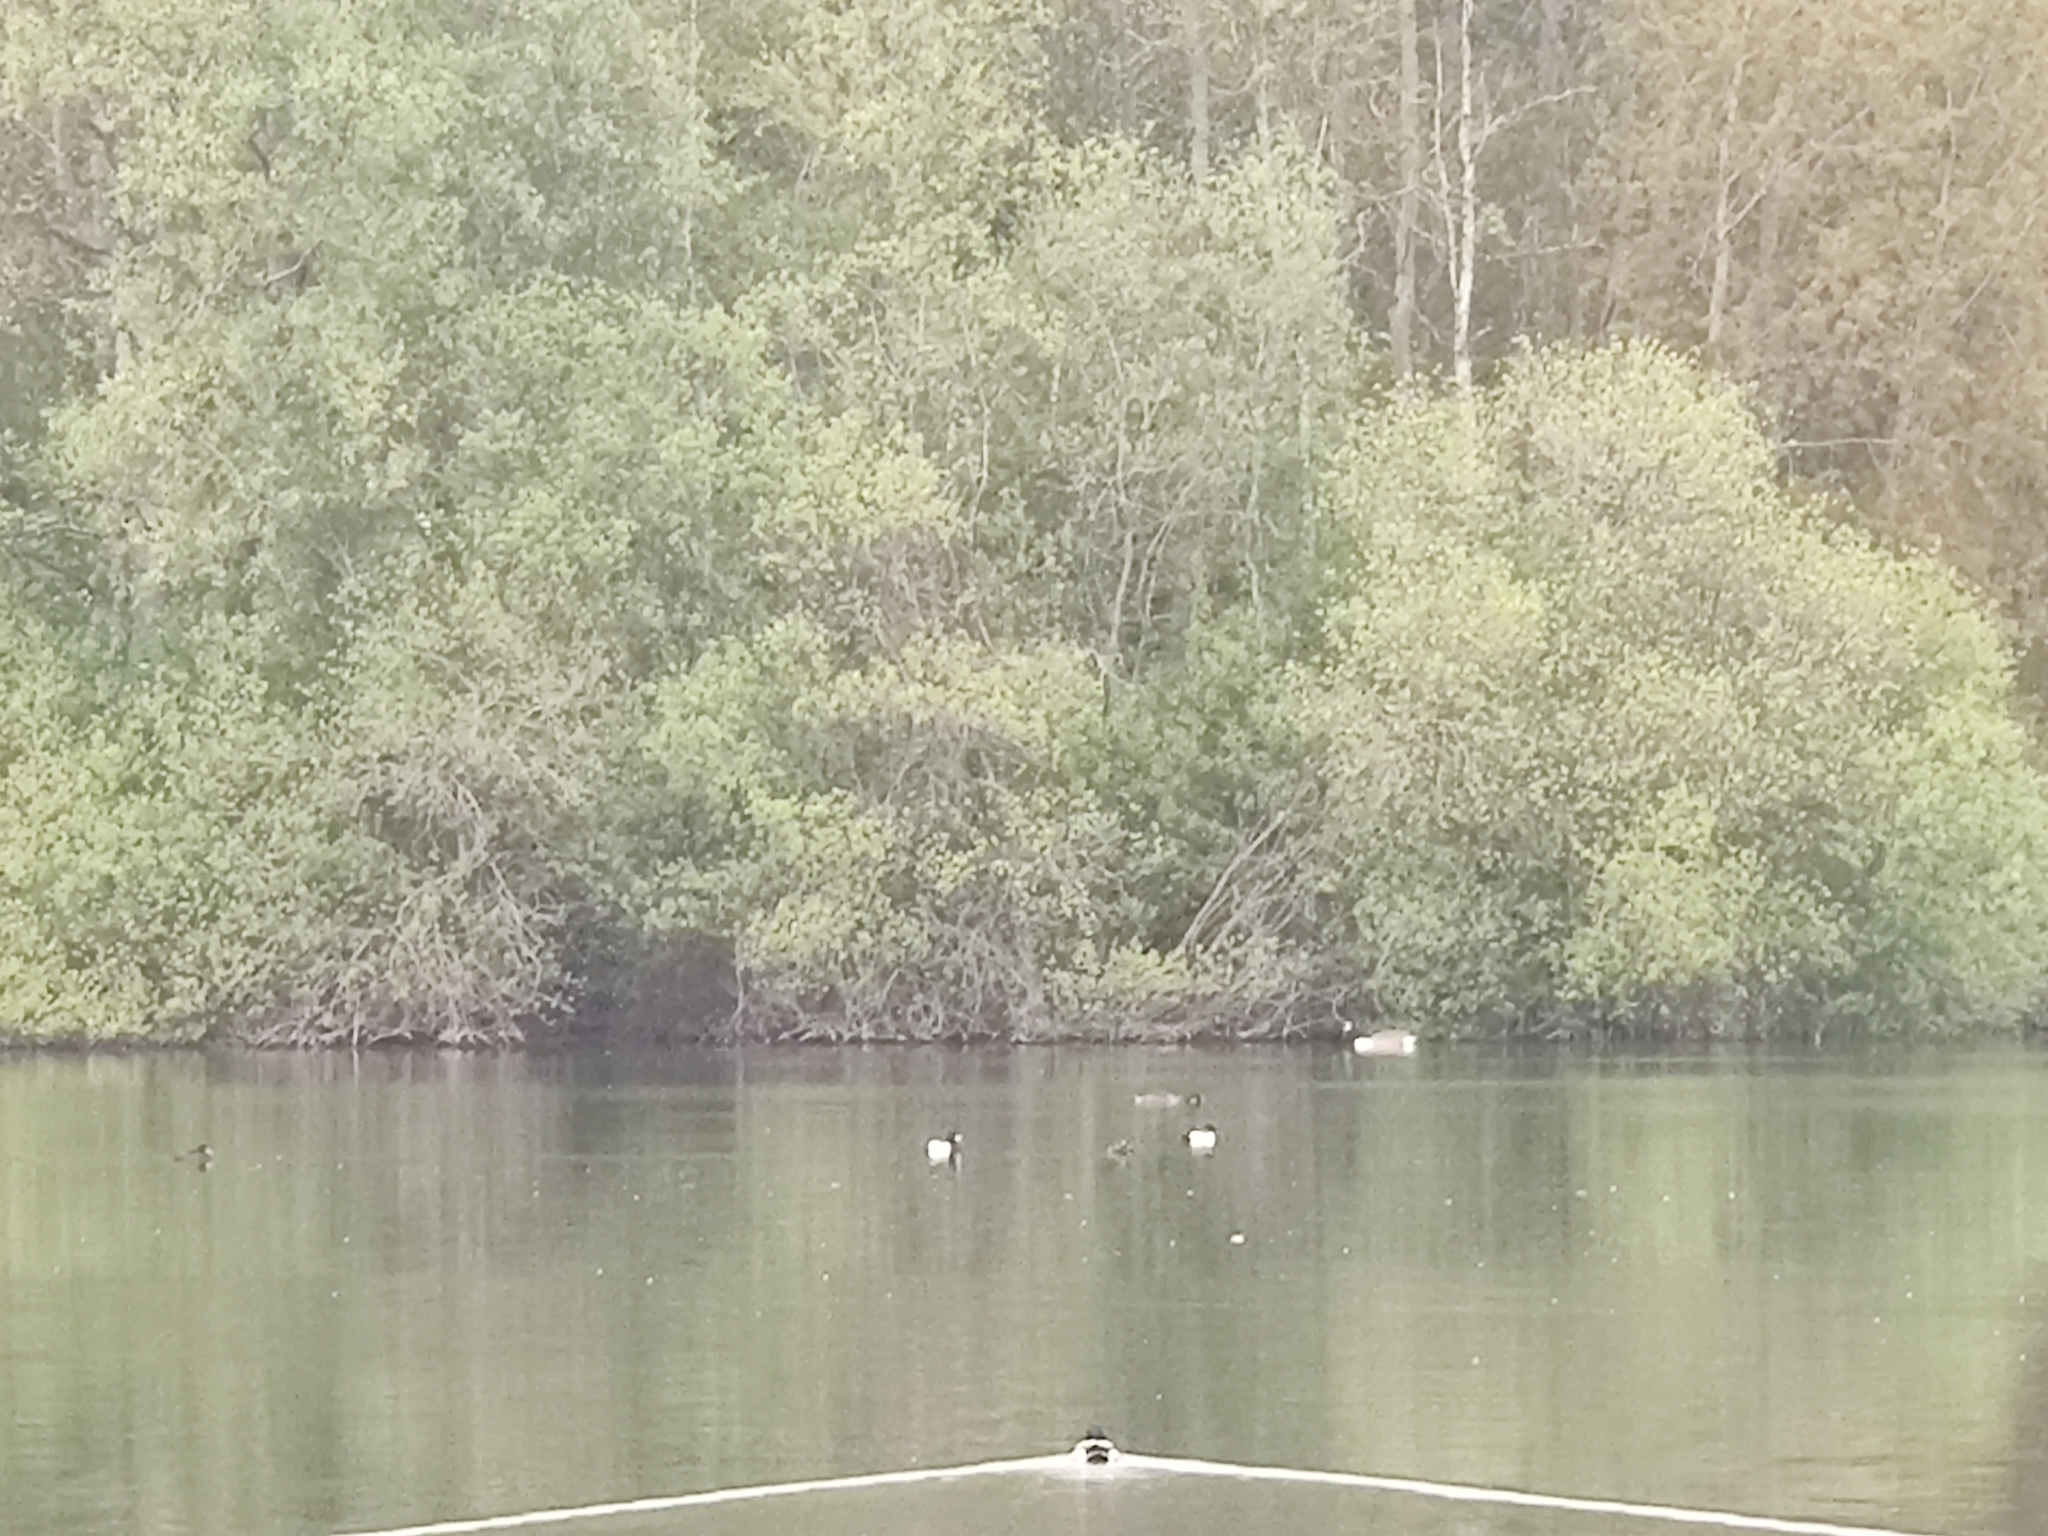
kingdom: Animalia
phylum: Chordata
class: Aves
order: Anseriformes
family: Anatidae
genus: Aythya
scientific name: Aythya fuligula
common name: Tufted duck
